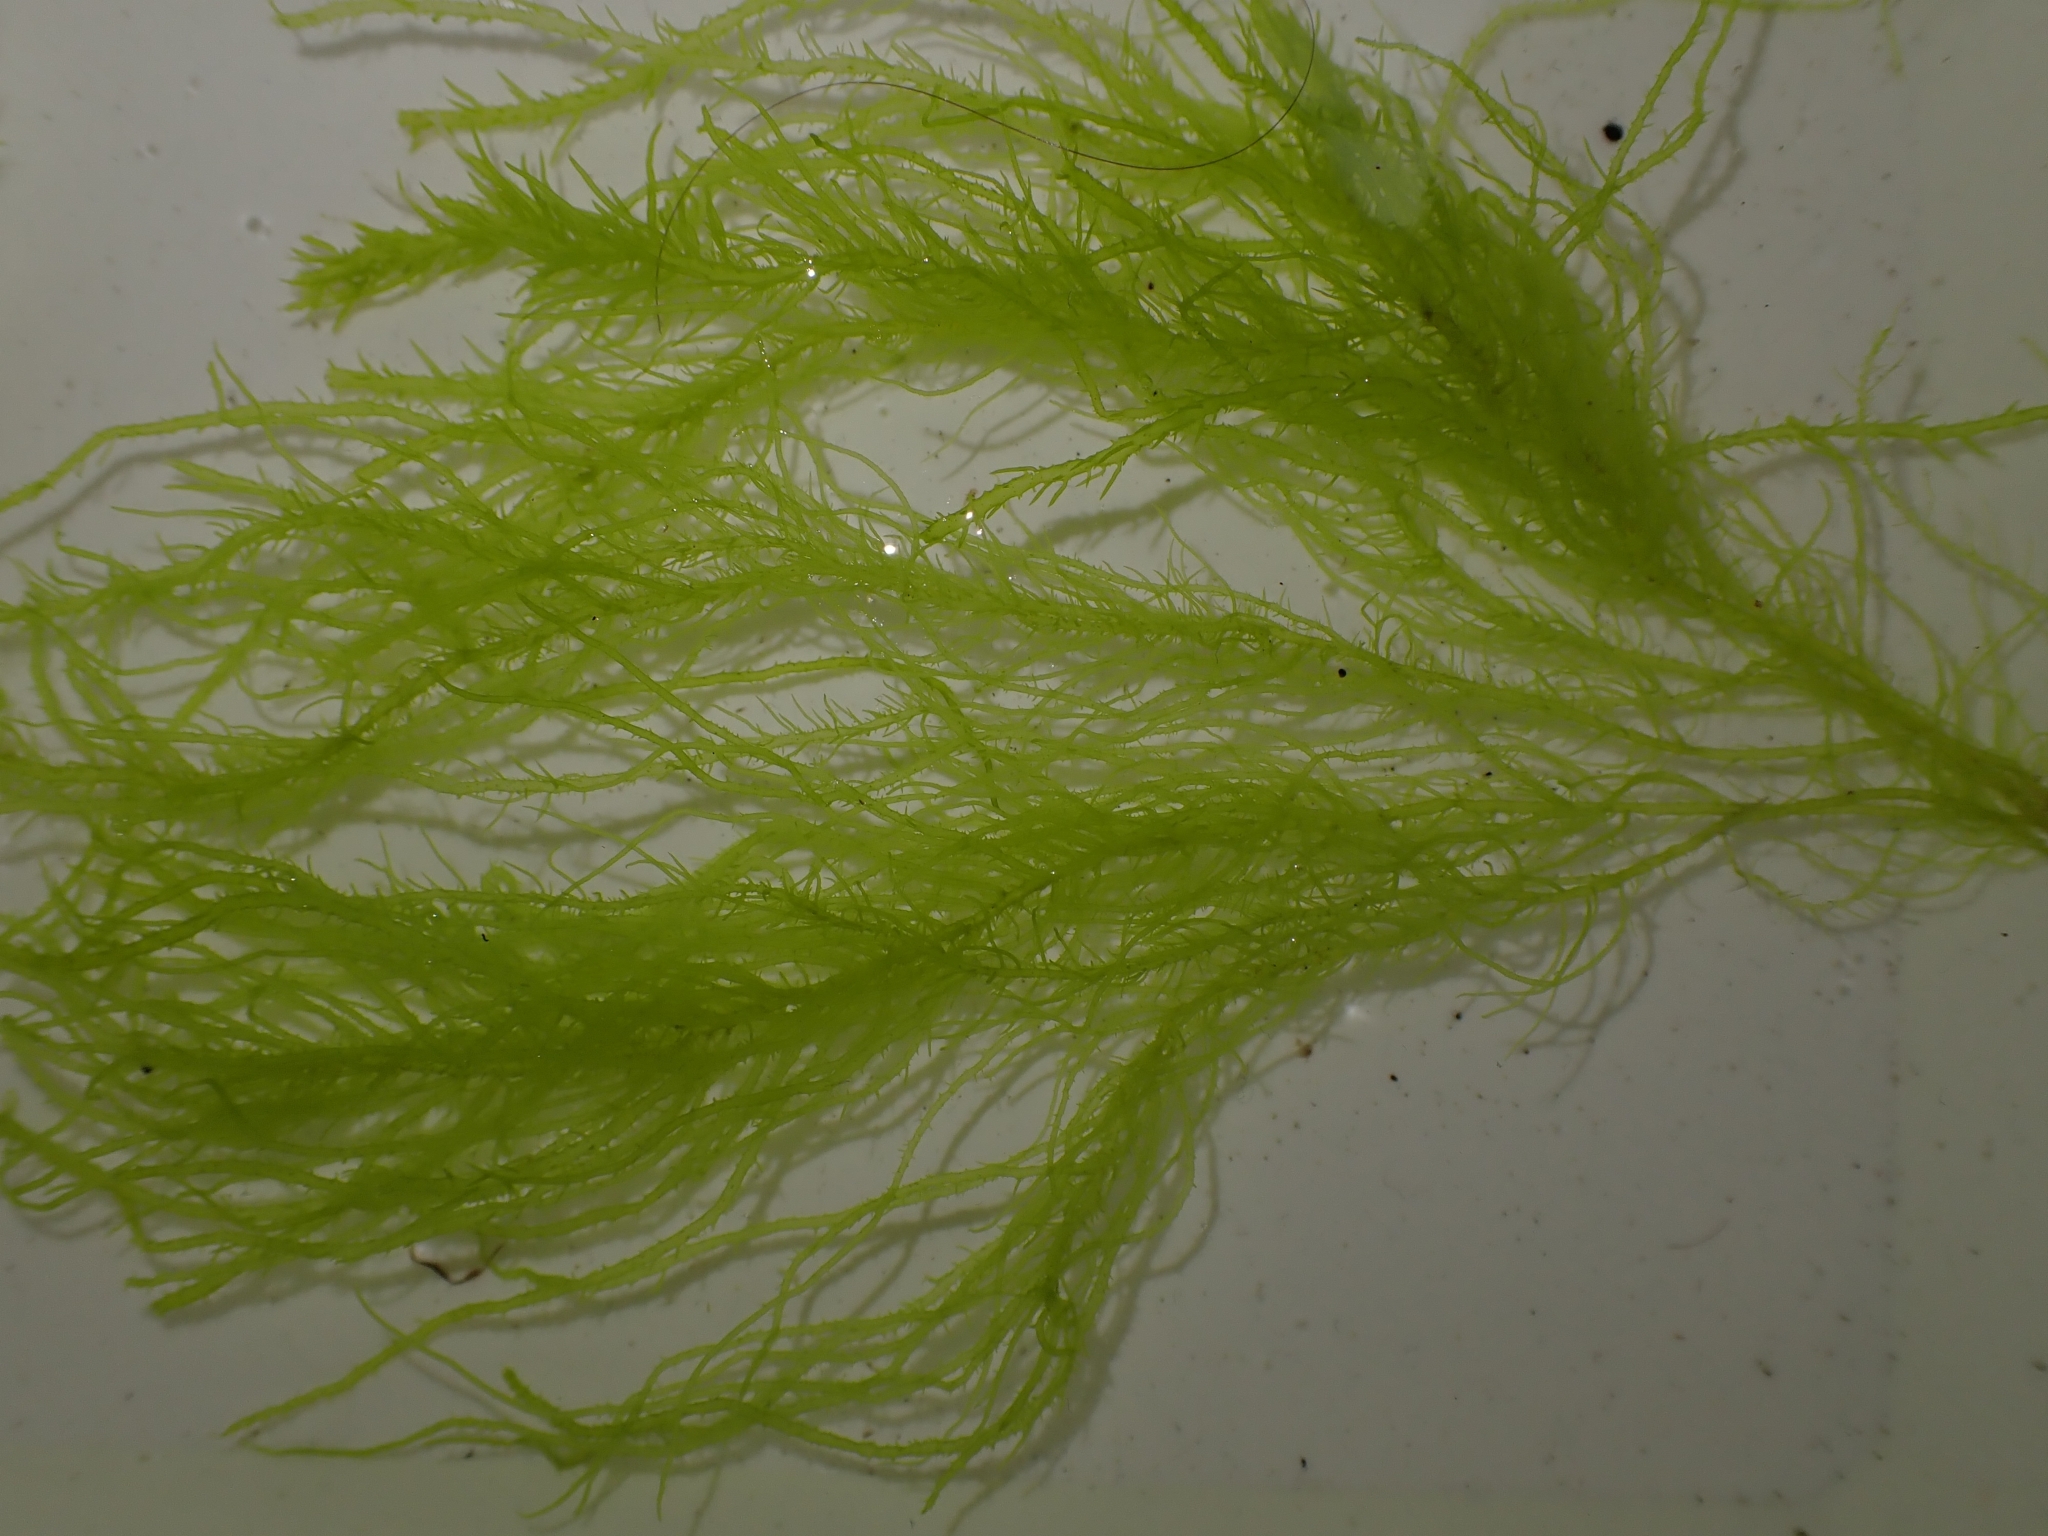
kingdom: Plantae
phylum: Chlorophyta
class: Ulvophyceae
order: Ulvales
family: Ulvaceae
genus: Ulva
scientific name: Ulva compressa
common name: Thread weed
